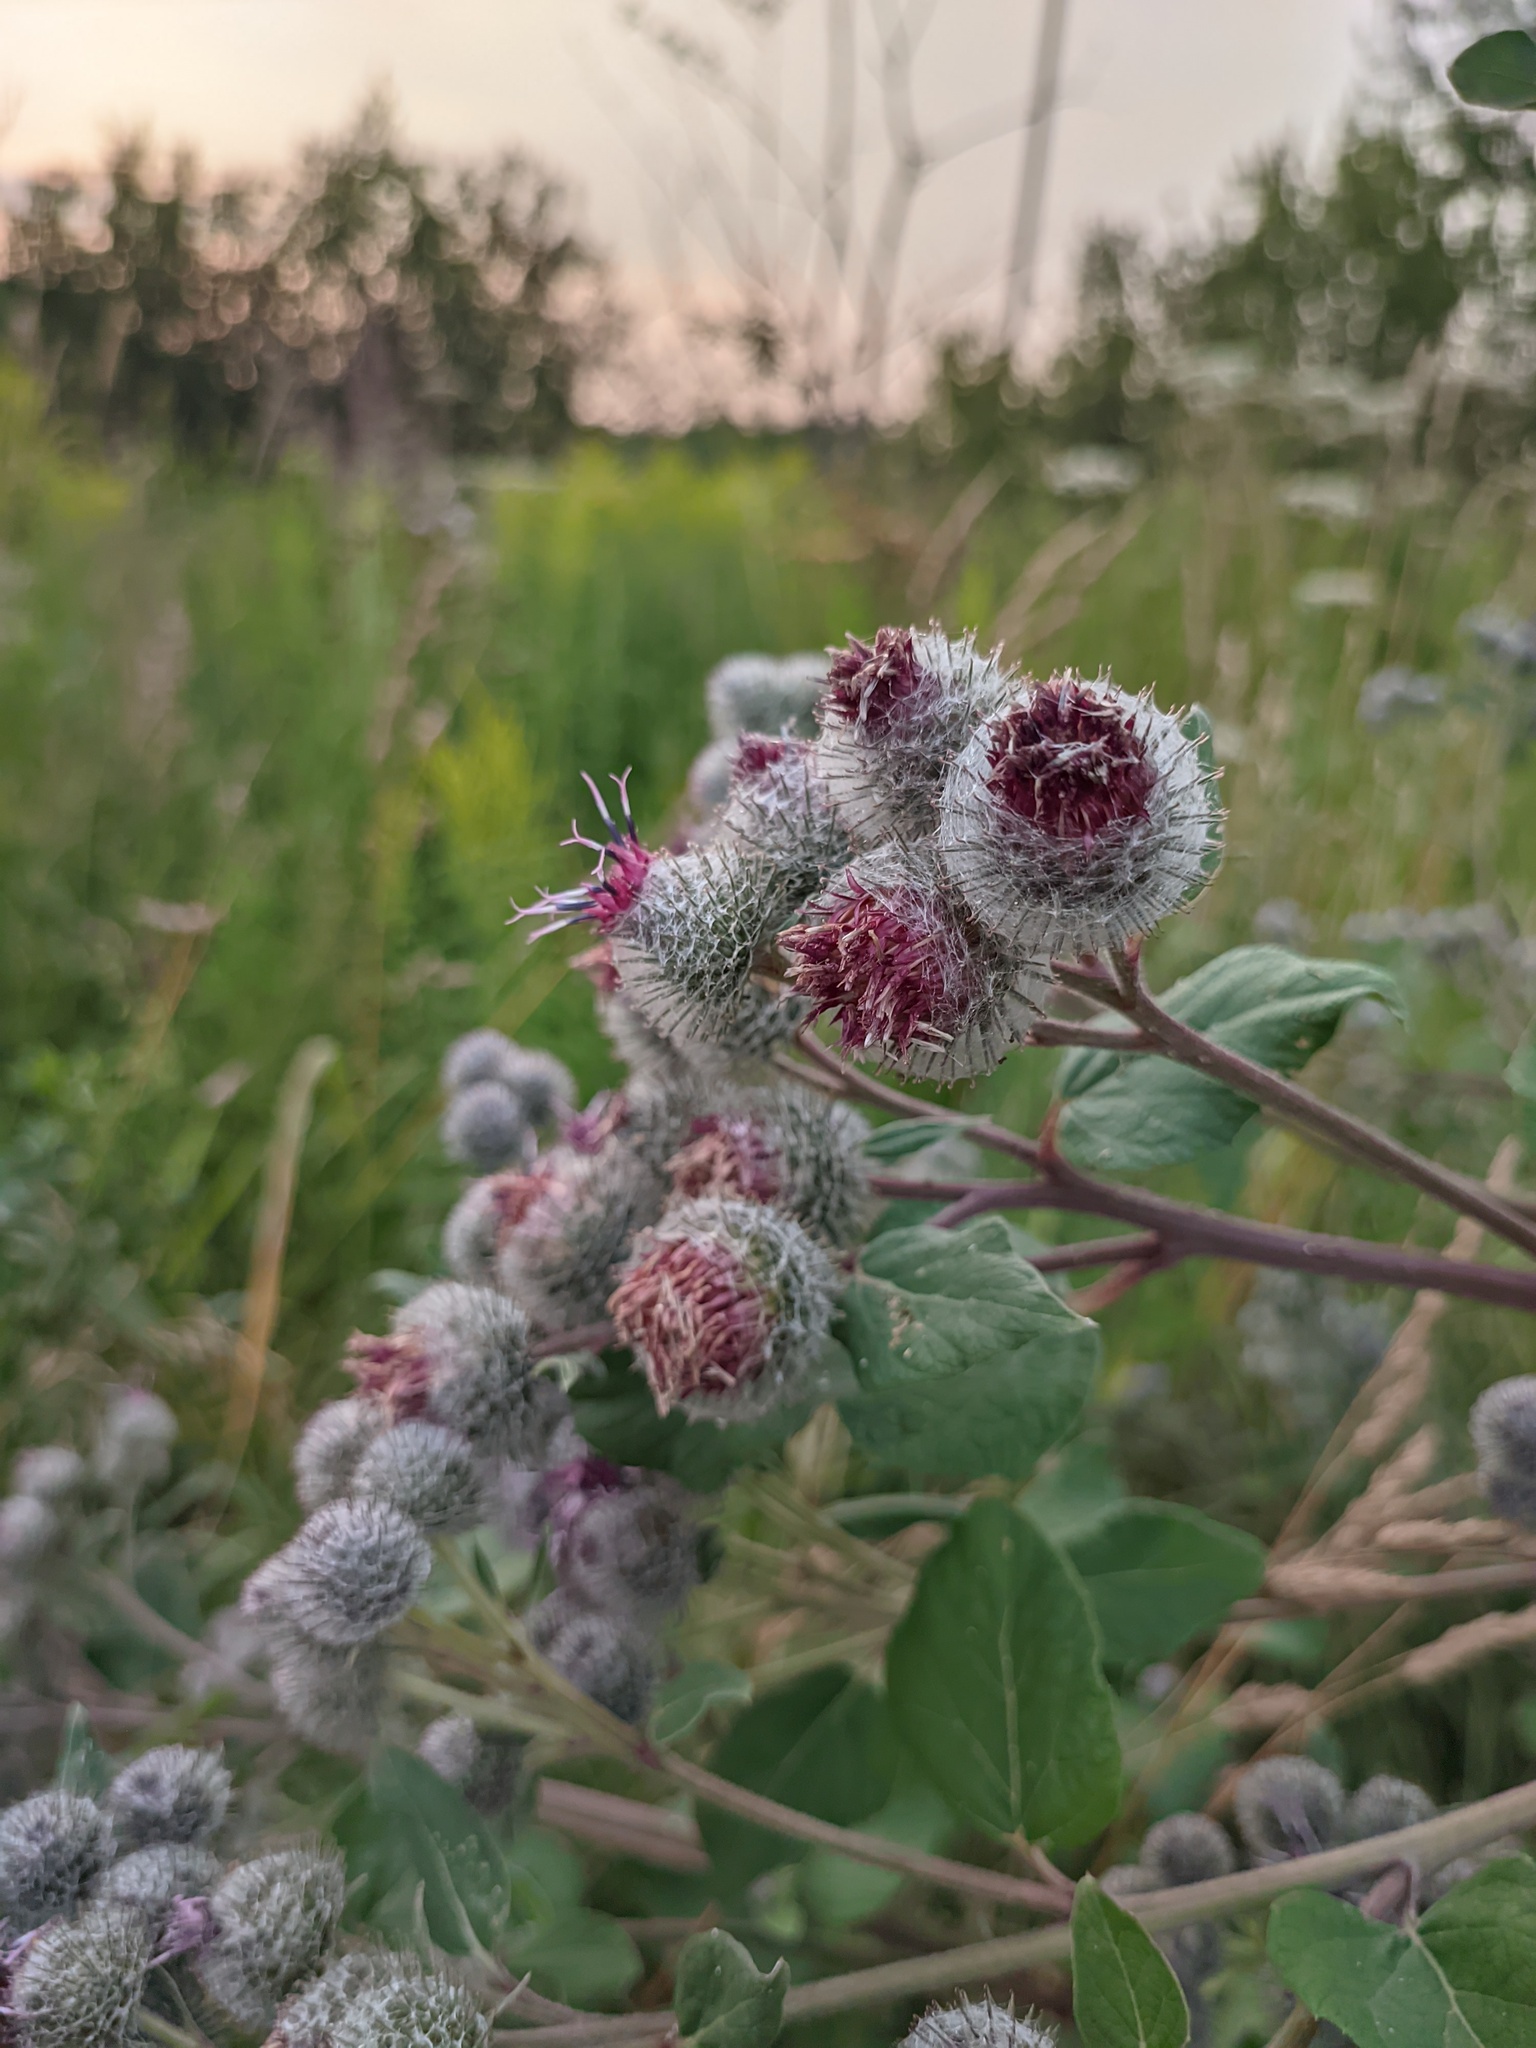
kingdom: Plantae
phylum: Tracheophyta
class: Magnoliopsida
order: Asterales
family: Asteraceae
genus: Arctium
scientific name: Arctium tomentosum
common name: Woolly burdock
